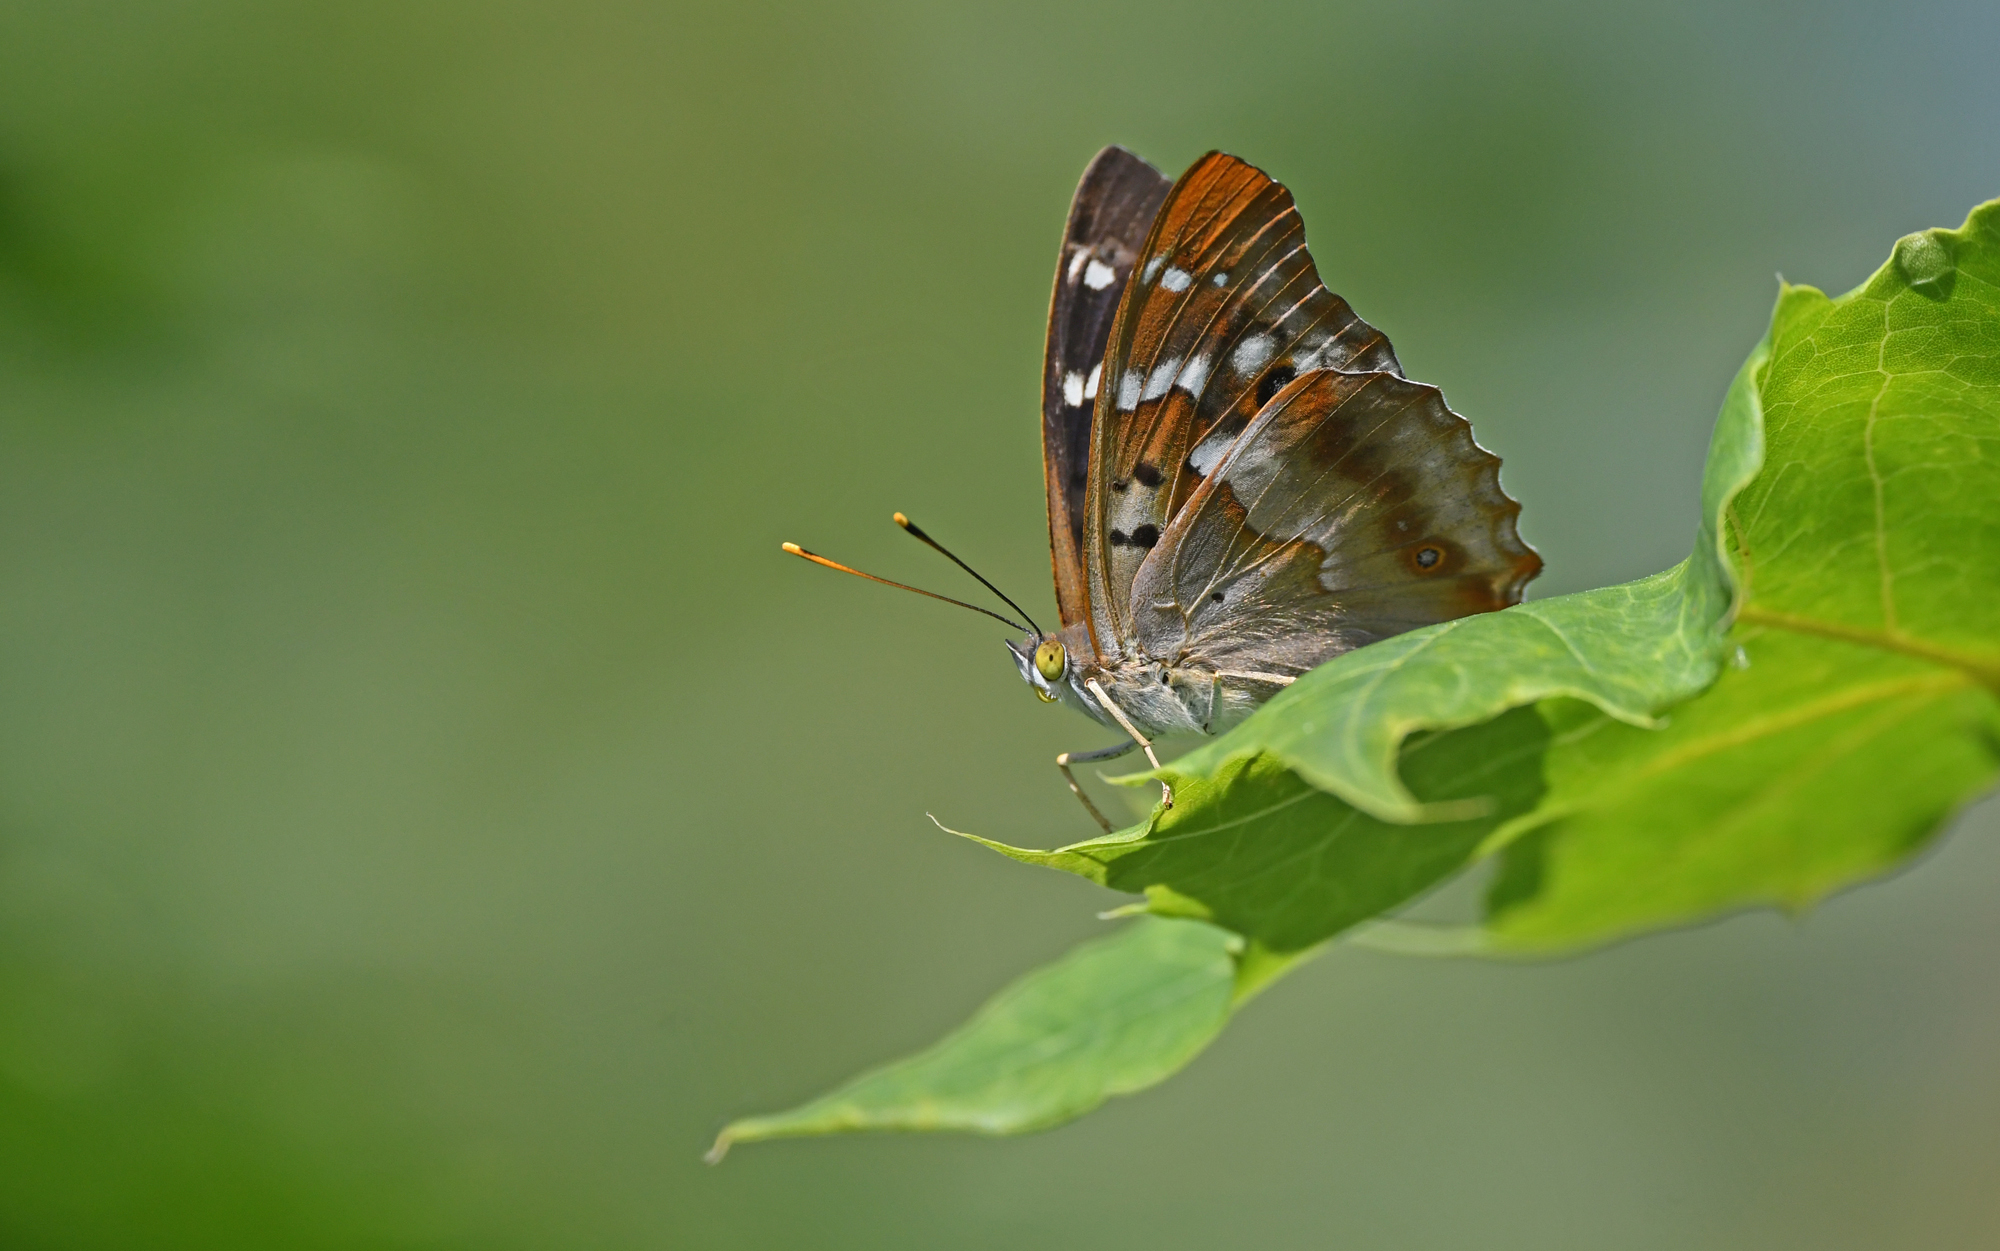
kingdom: Animalia
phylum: Arthropoda
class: Insecta
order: Lepidoptera
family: Nymphalidae
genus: Apatura
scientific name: Apatura ilia
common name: Lesser purple emperor
